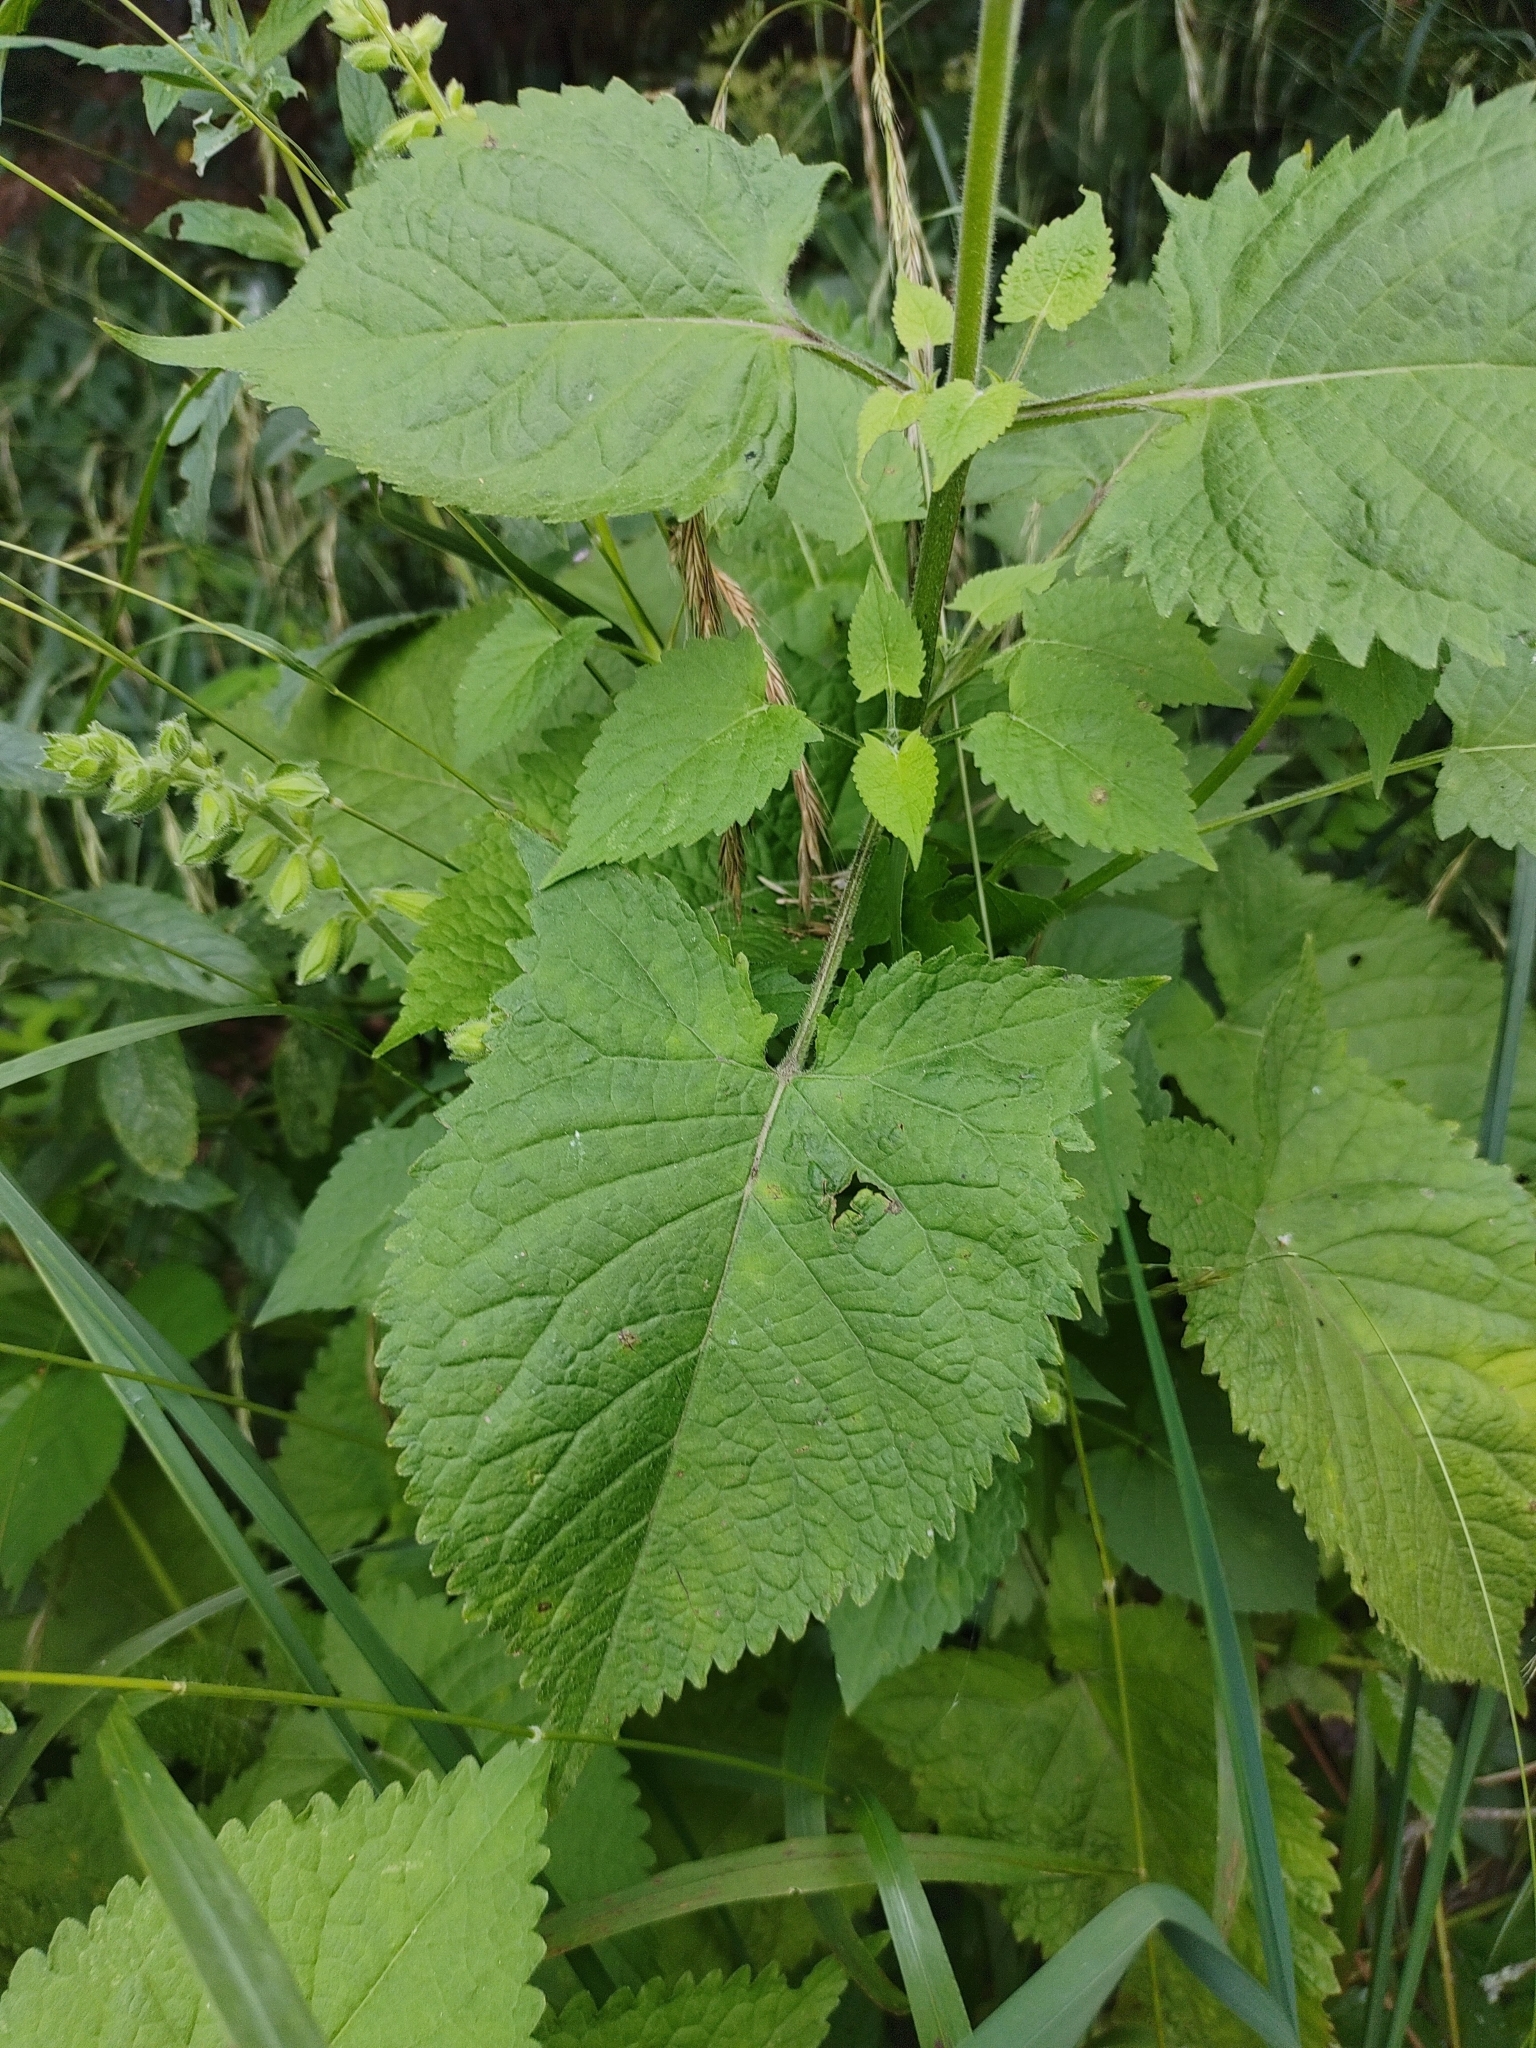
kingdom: Plantae
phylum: Tracheophyta
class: Magnoliopsida
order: Lamiales
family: Lamiaceae
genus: Salvia
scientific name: Salvia glutinosa
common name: Sticky clary
